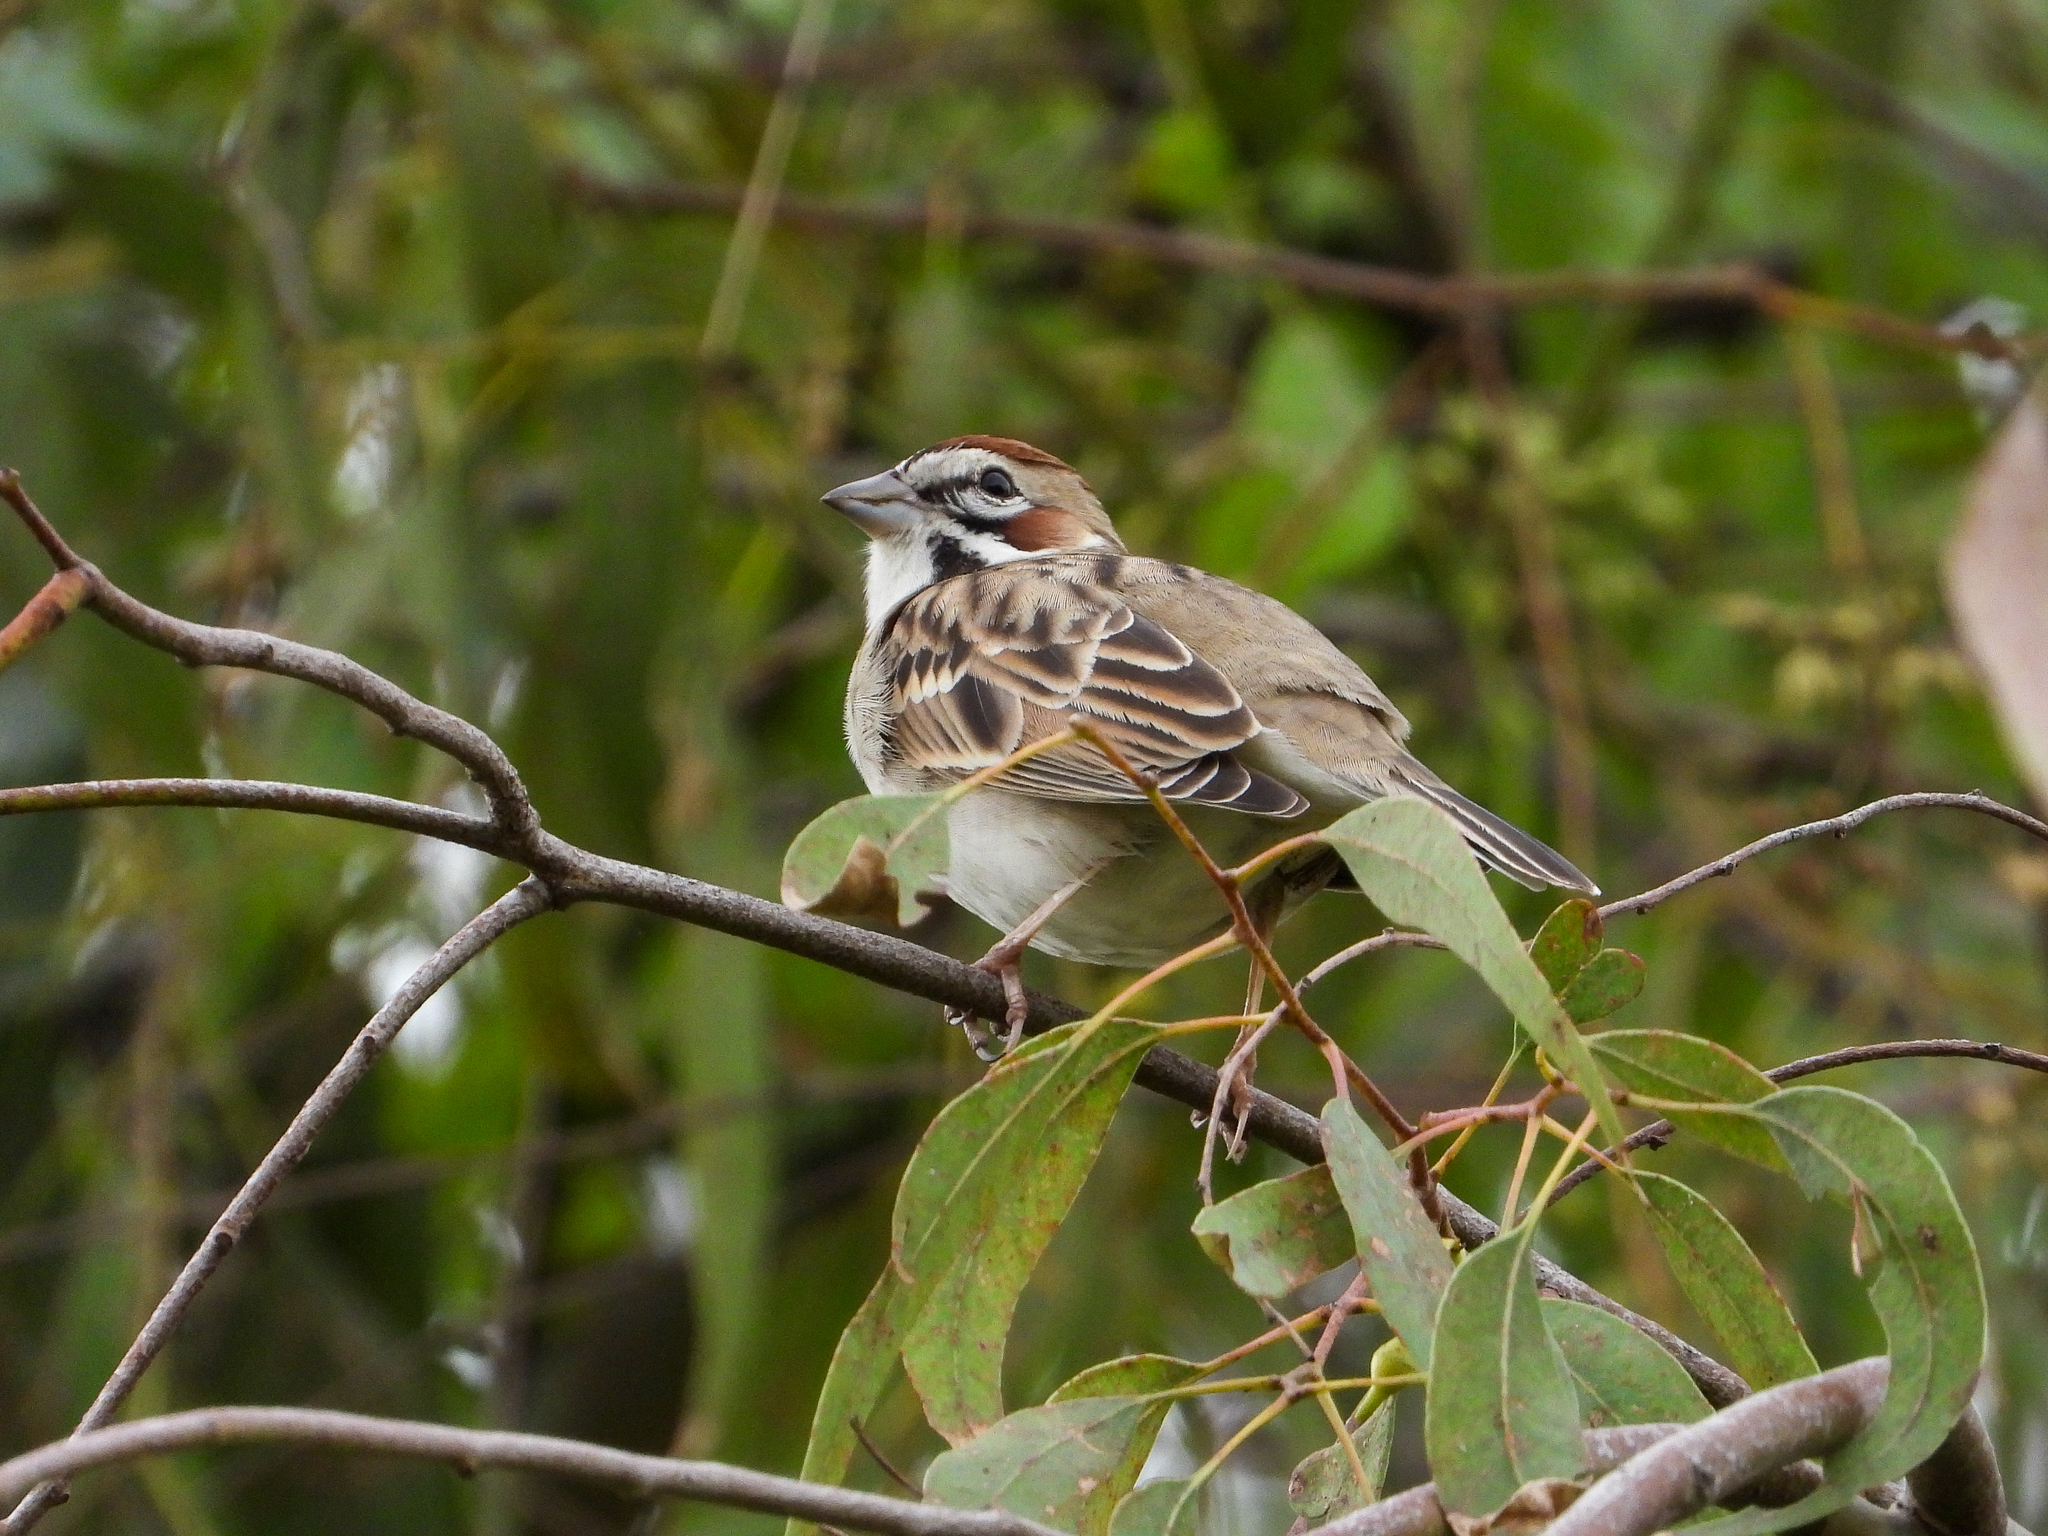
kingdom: Animalia
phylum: Chordata
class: Aves
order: Passeriformes
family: Passerellidae
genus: Chondestes
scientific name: Chondestes grammacus
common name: Lark sparrow
